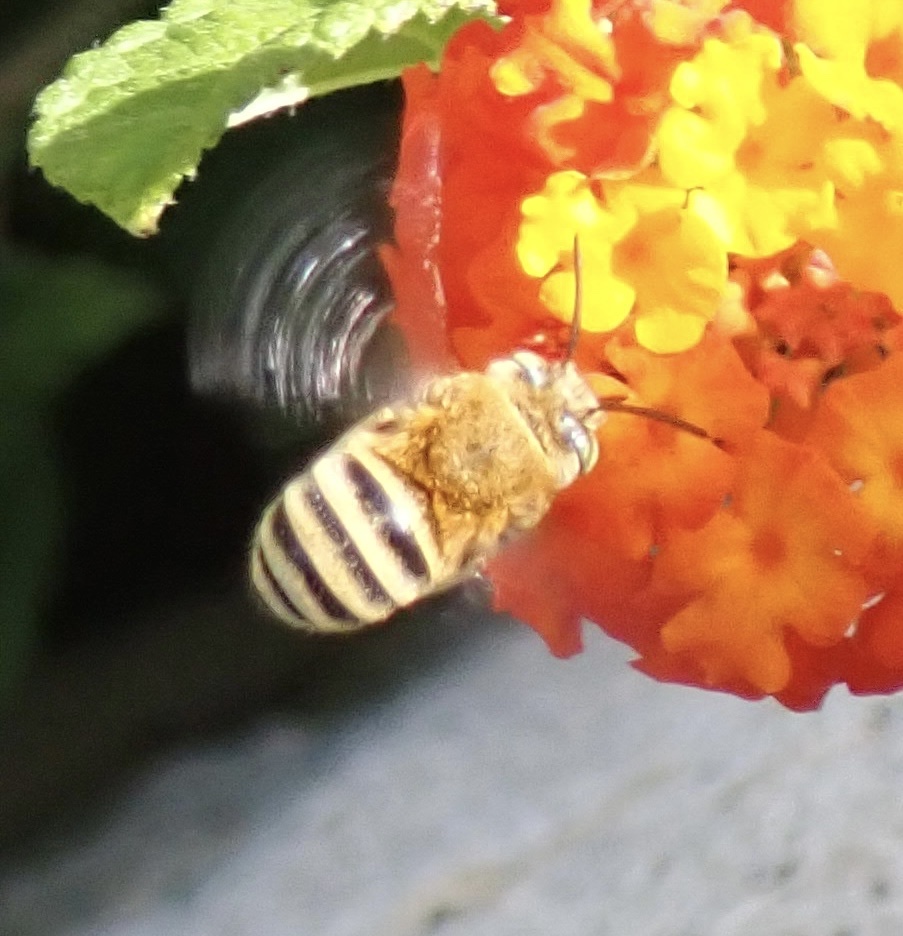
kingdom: Animalia
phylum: Arthropoda
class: Insecta
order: Hymenoptera
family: Apidae
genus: Amegilla
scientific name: Amegilla garrula
